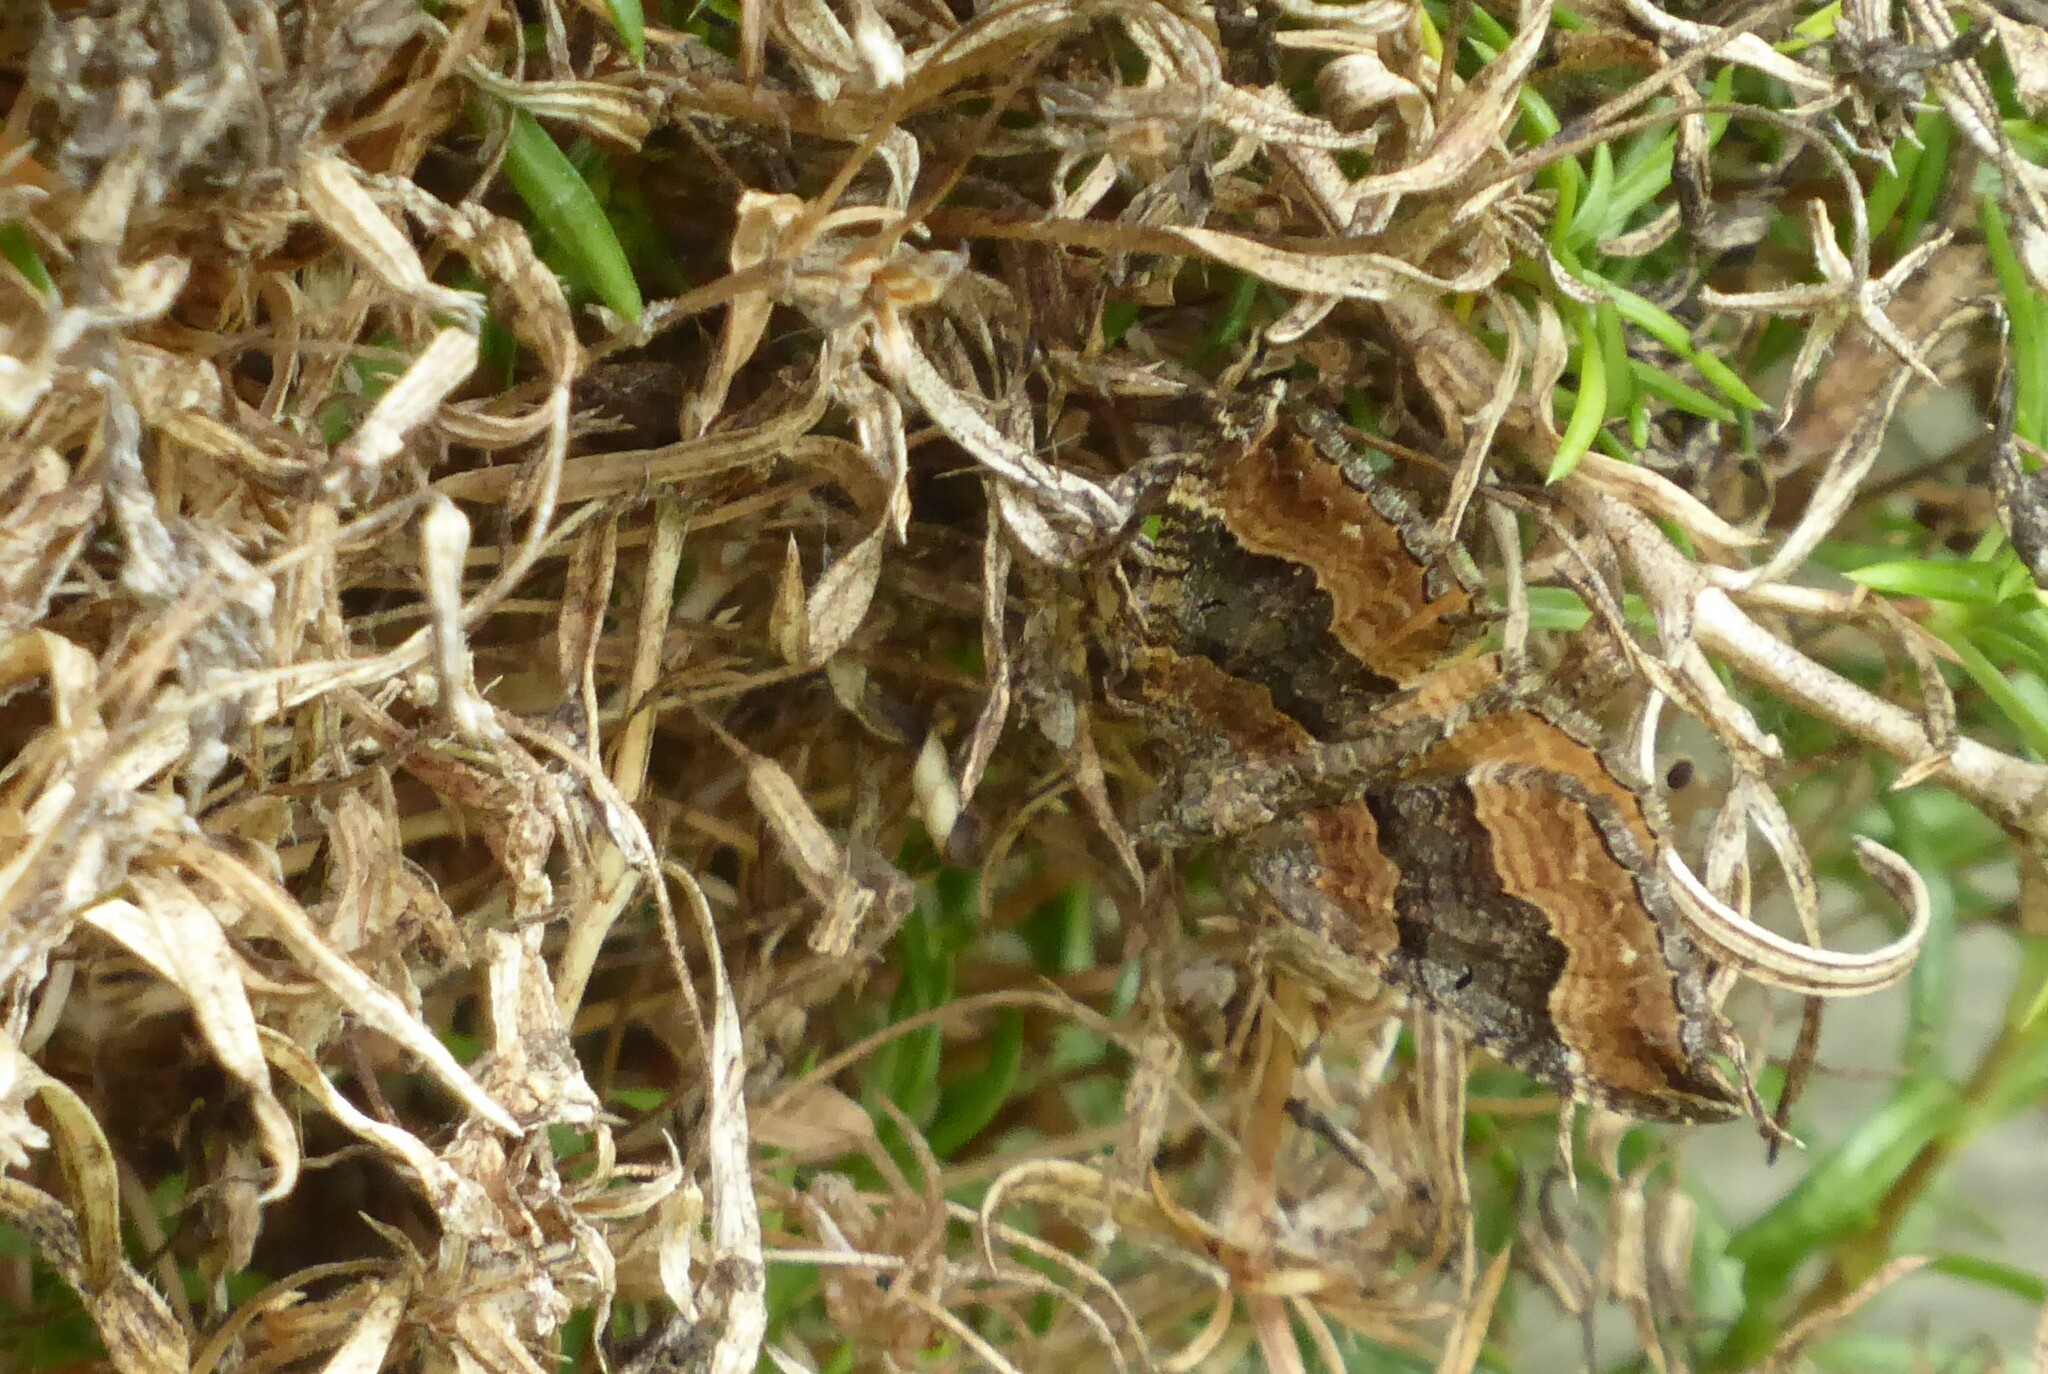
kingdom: Animalia
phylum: Arthropoda
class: Insecta
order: Lepidoptera
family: Geometridae
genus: Hydriomena
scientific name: Hydriomena deltoidata
